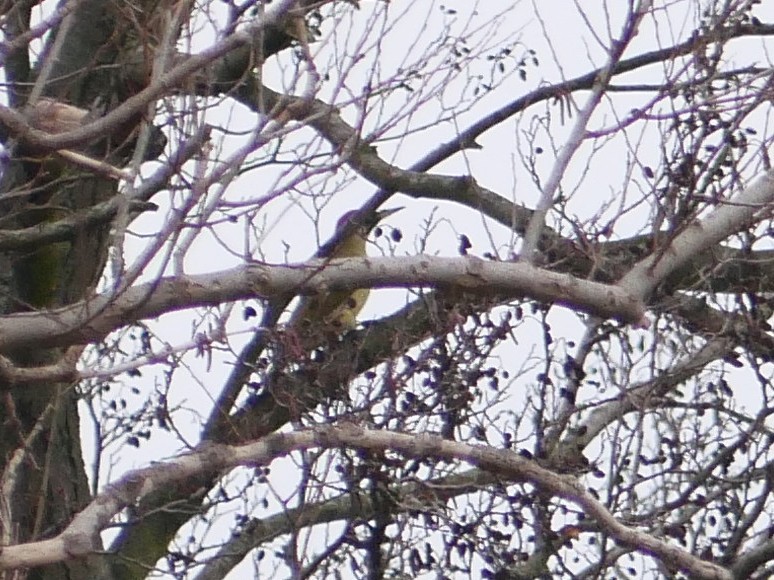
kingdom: Animalia
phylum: Chordata
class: Aves
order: Piciformes
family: Picidae
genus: Picus
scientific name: Picus viridis
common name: European green woodpecker
